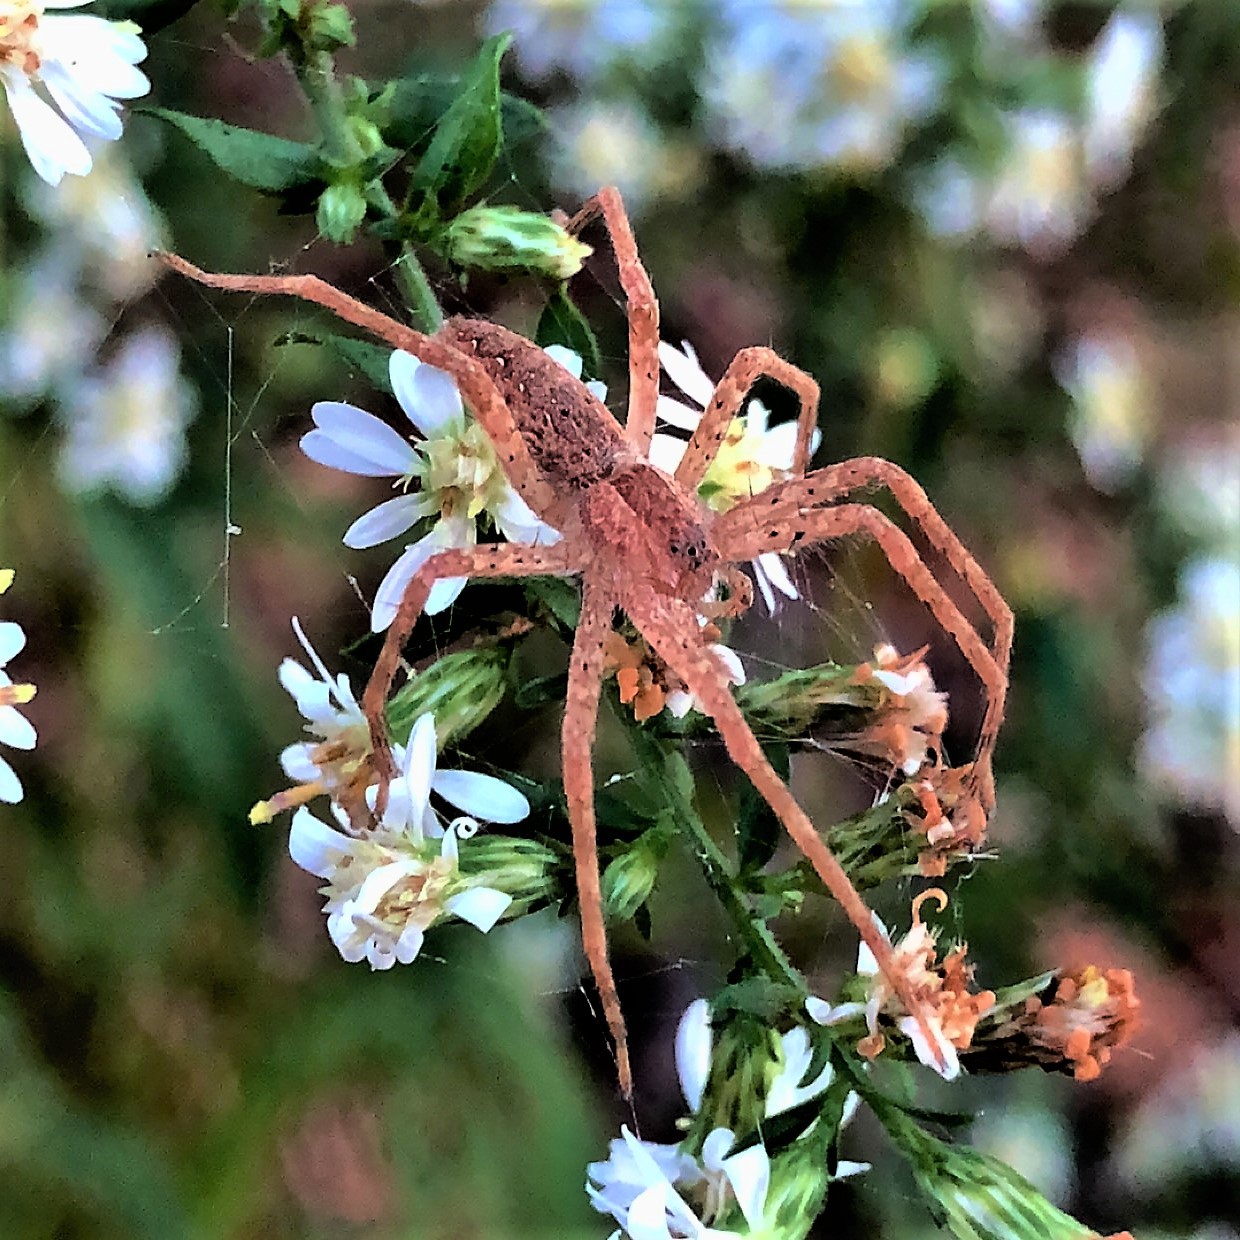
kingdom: Animalia
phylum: Arthropoda
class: Arachnida
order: Araneae
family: Pisauridae
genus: Pisaurina
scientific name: Pisaurina mira
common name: American nursery web spider
